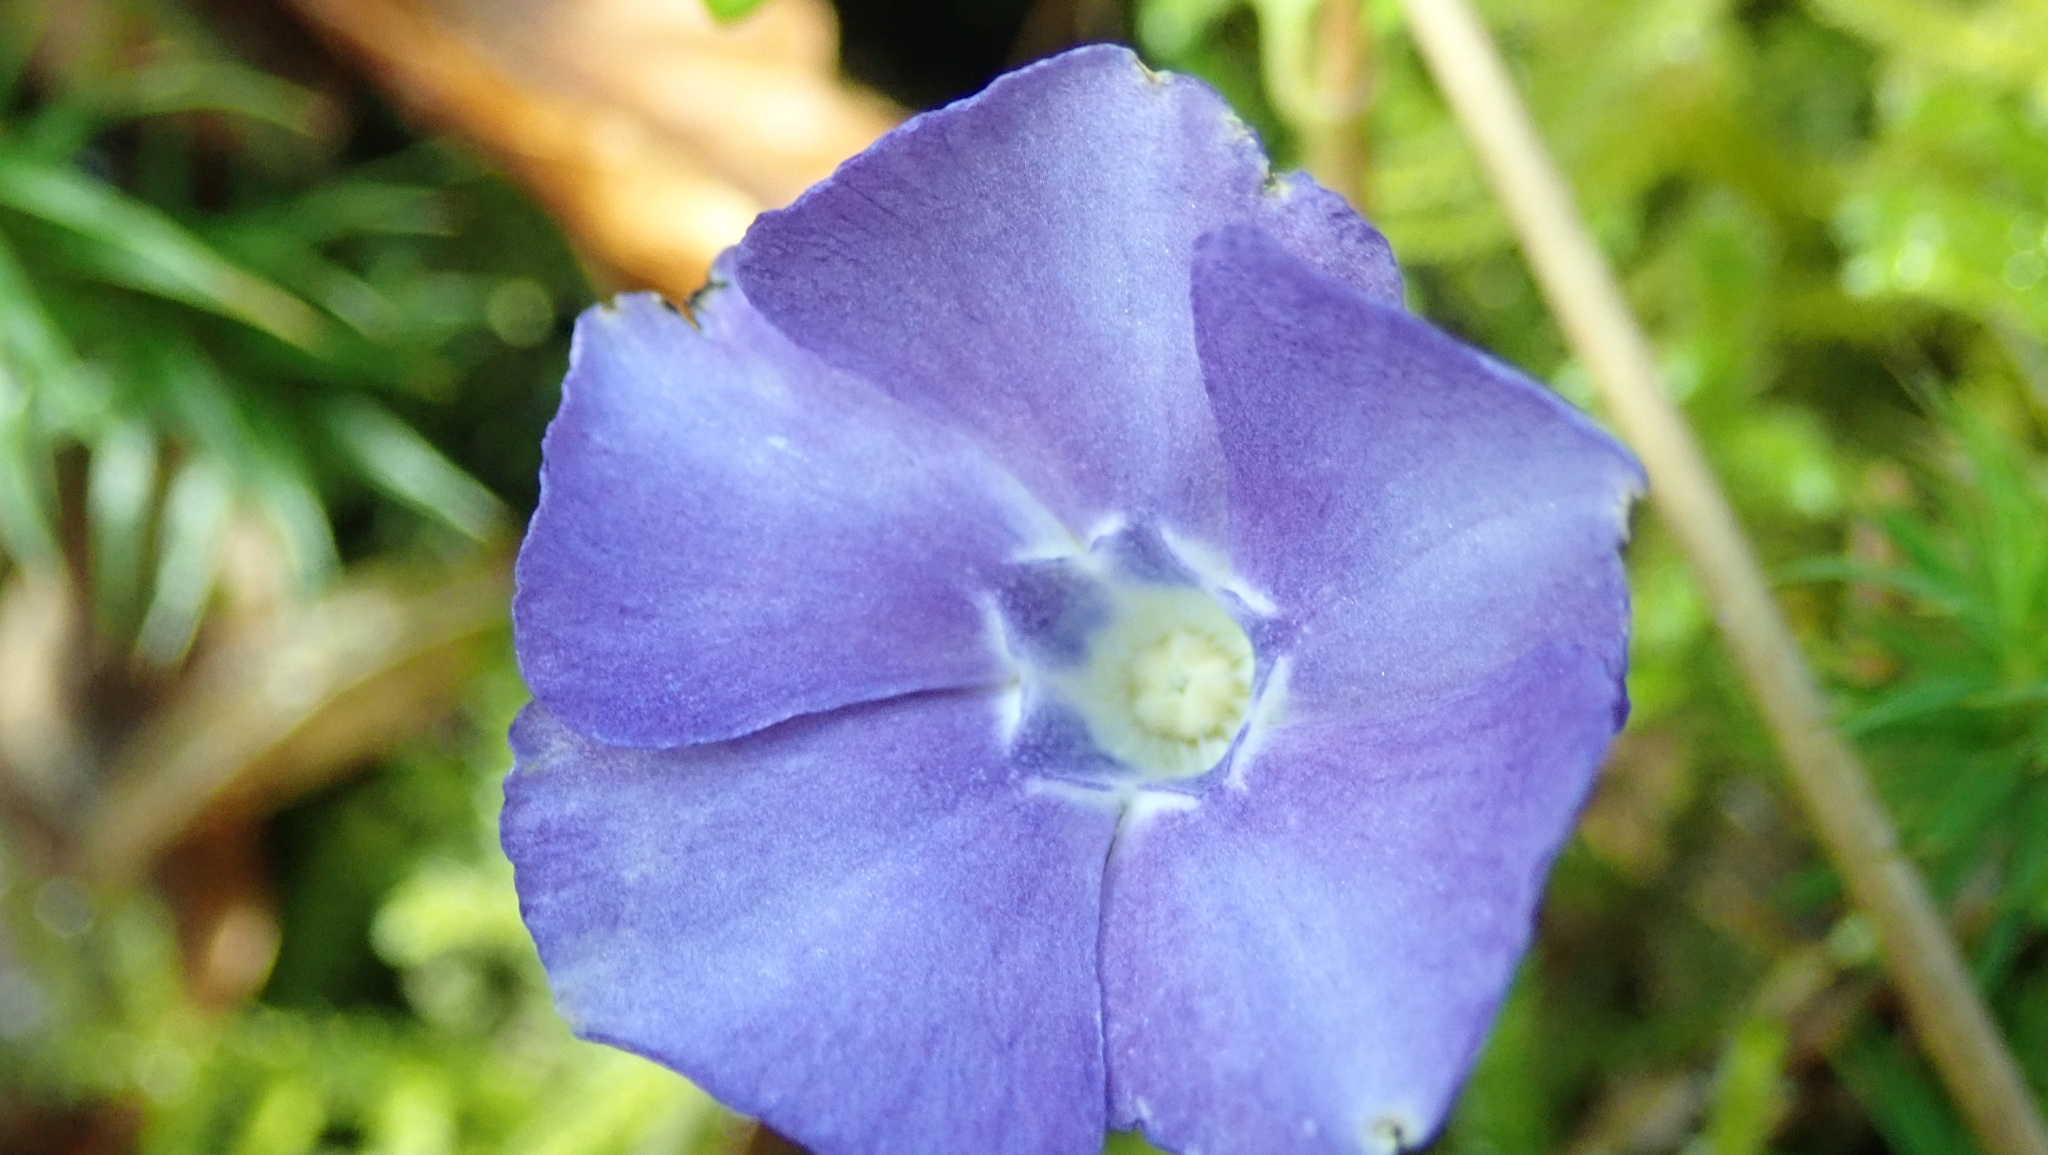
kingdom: Plantae
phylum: Tracheophyta
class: Magnoliopsida
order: Gentianales
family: Apocynaceae
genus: Vinca
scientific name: Vinca minor
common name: Lesser periwinkle
